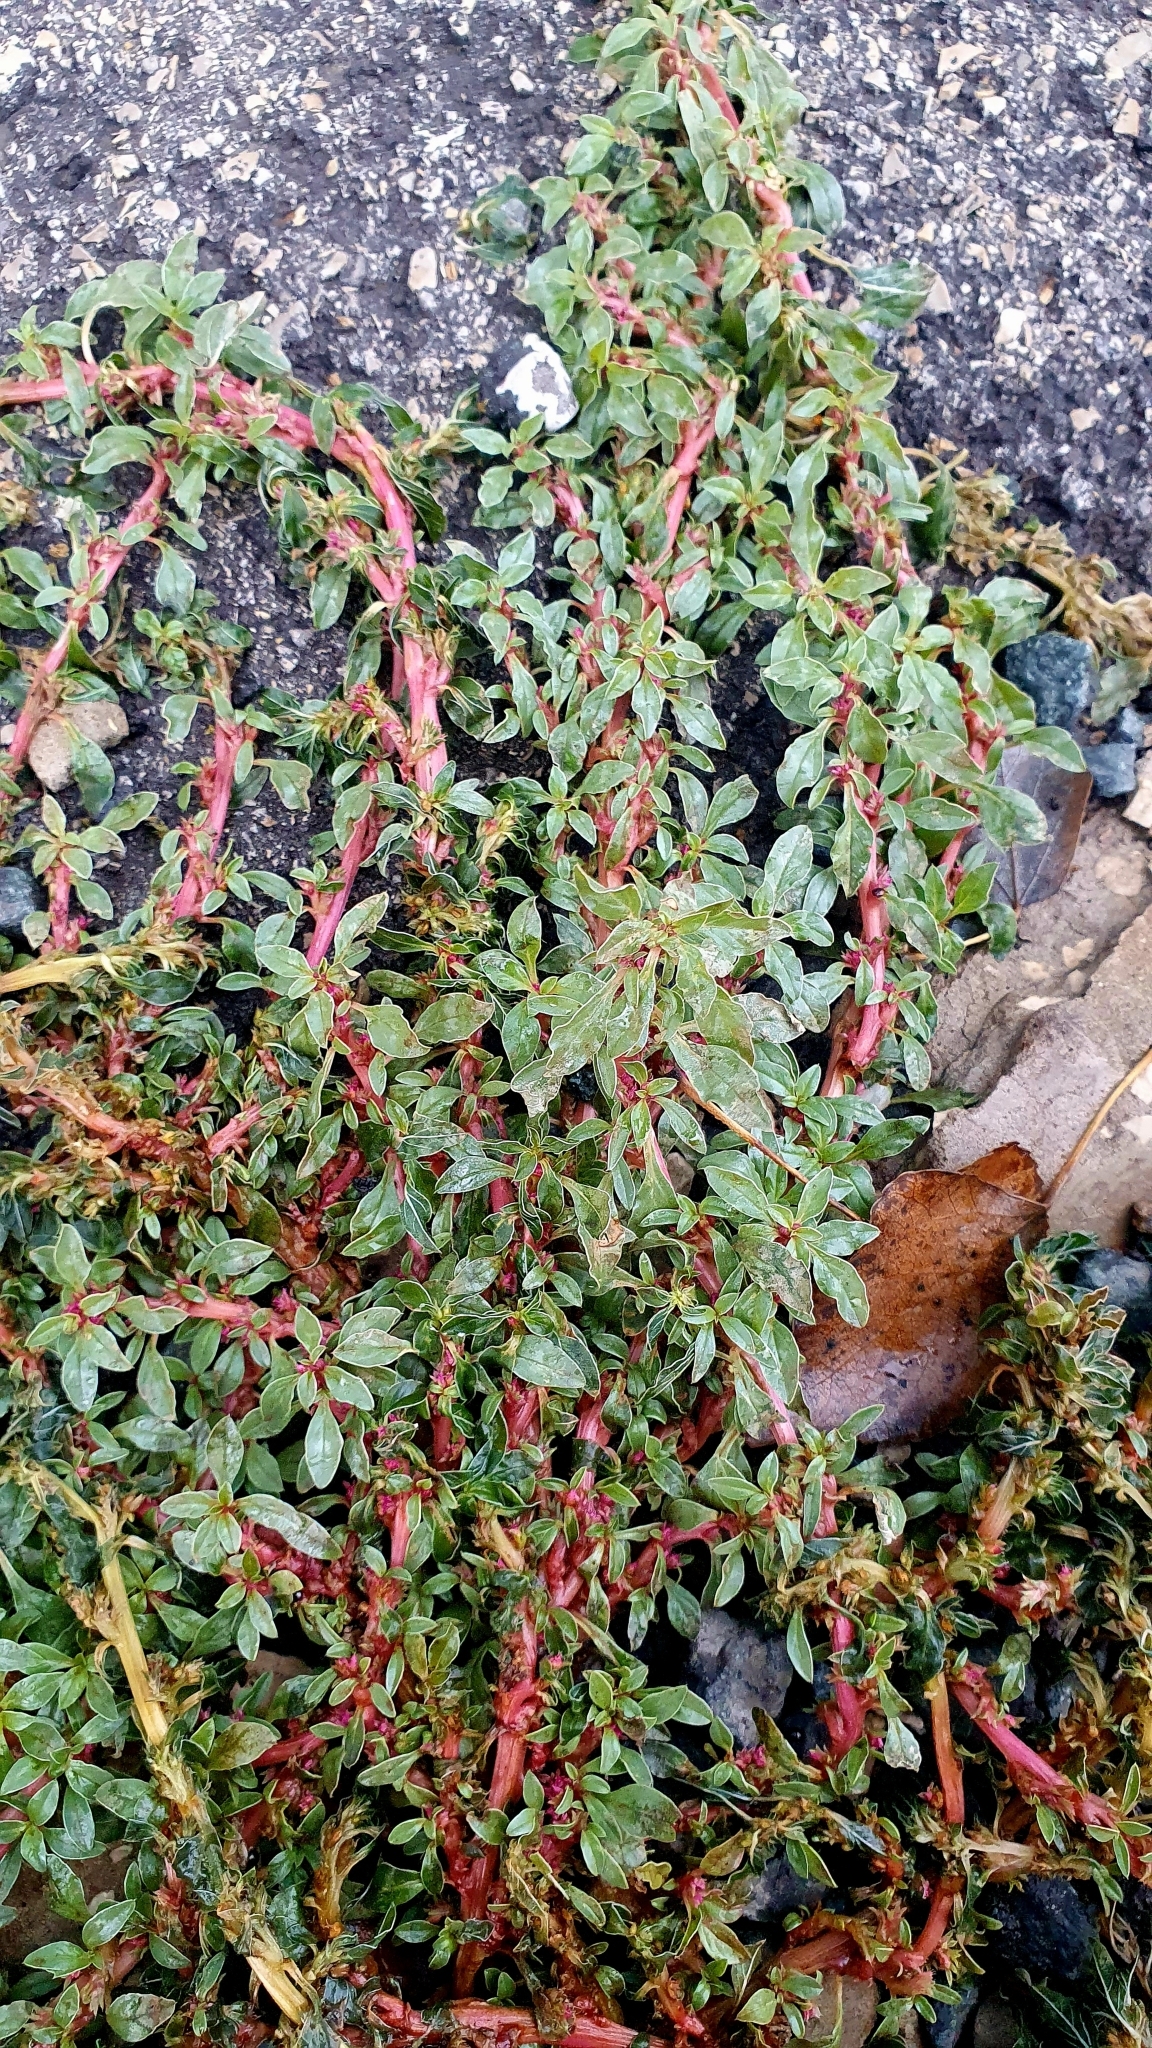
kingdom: Plantae
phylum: Tracheophyta
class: Magnoliopsida
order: Caryophyllales
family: Amaranthaceae
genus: Amaranthus
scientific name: Amaranthus blitoides
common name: Prostrate pigweed
